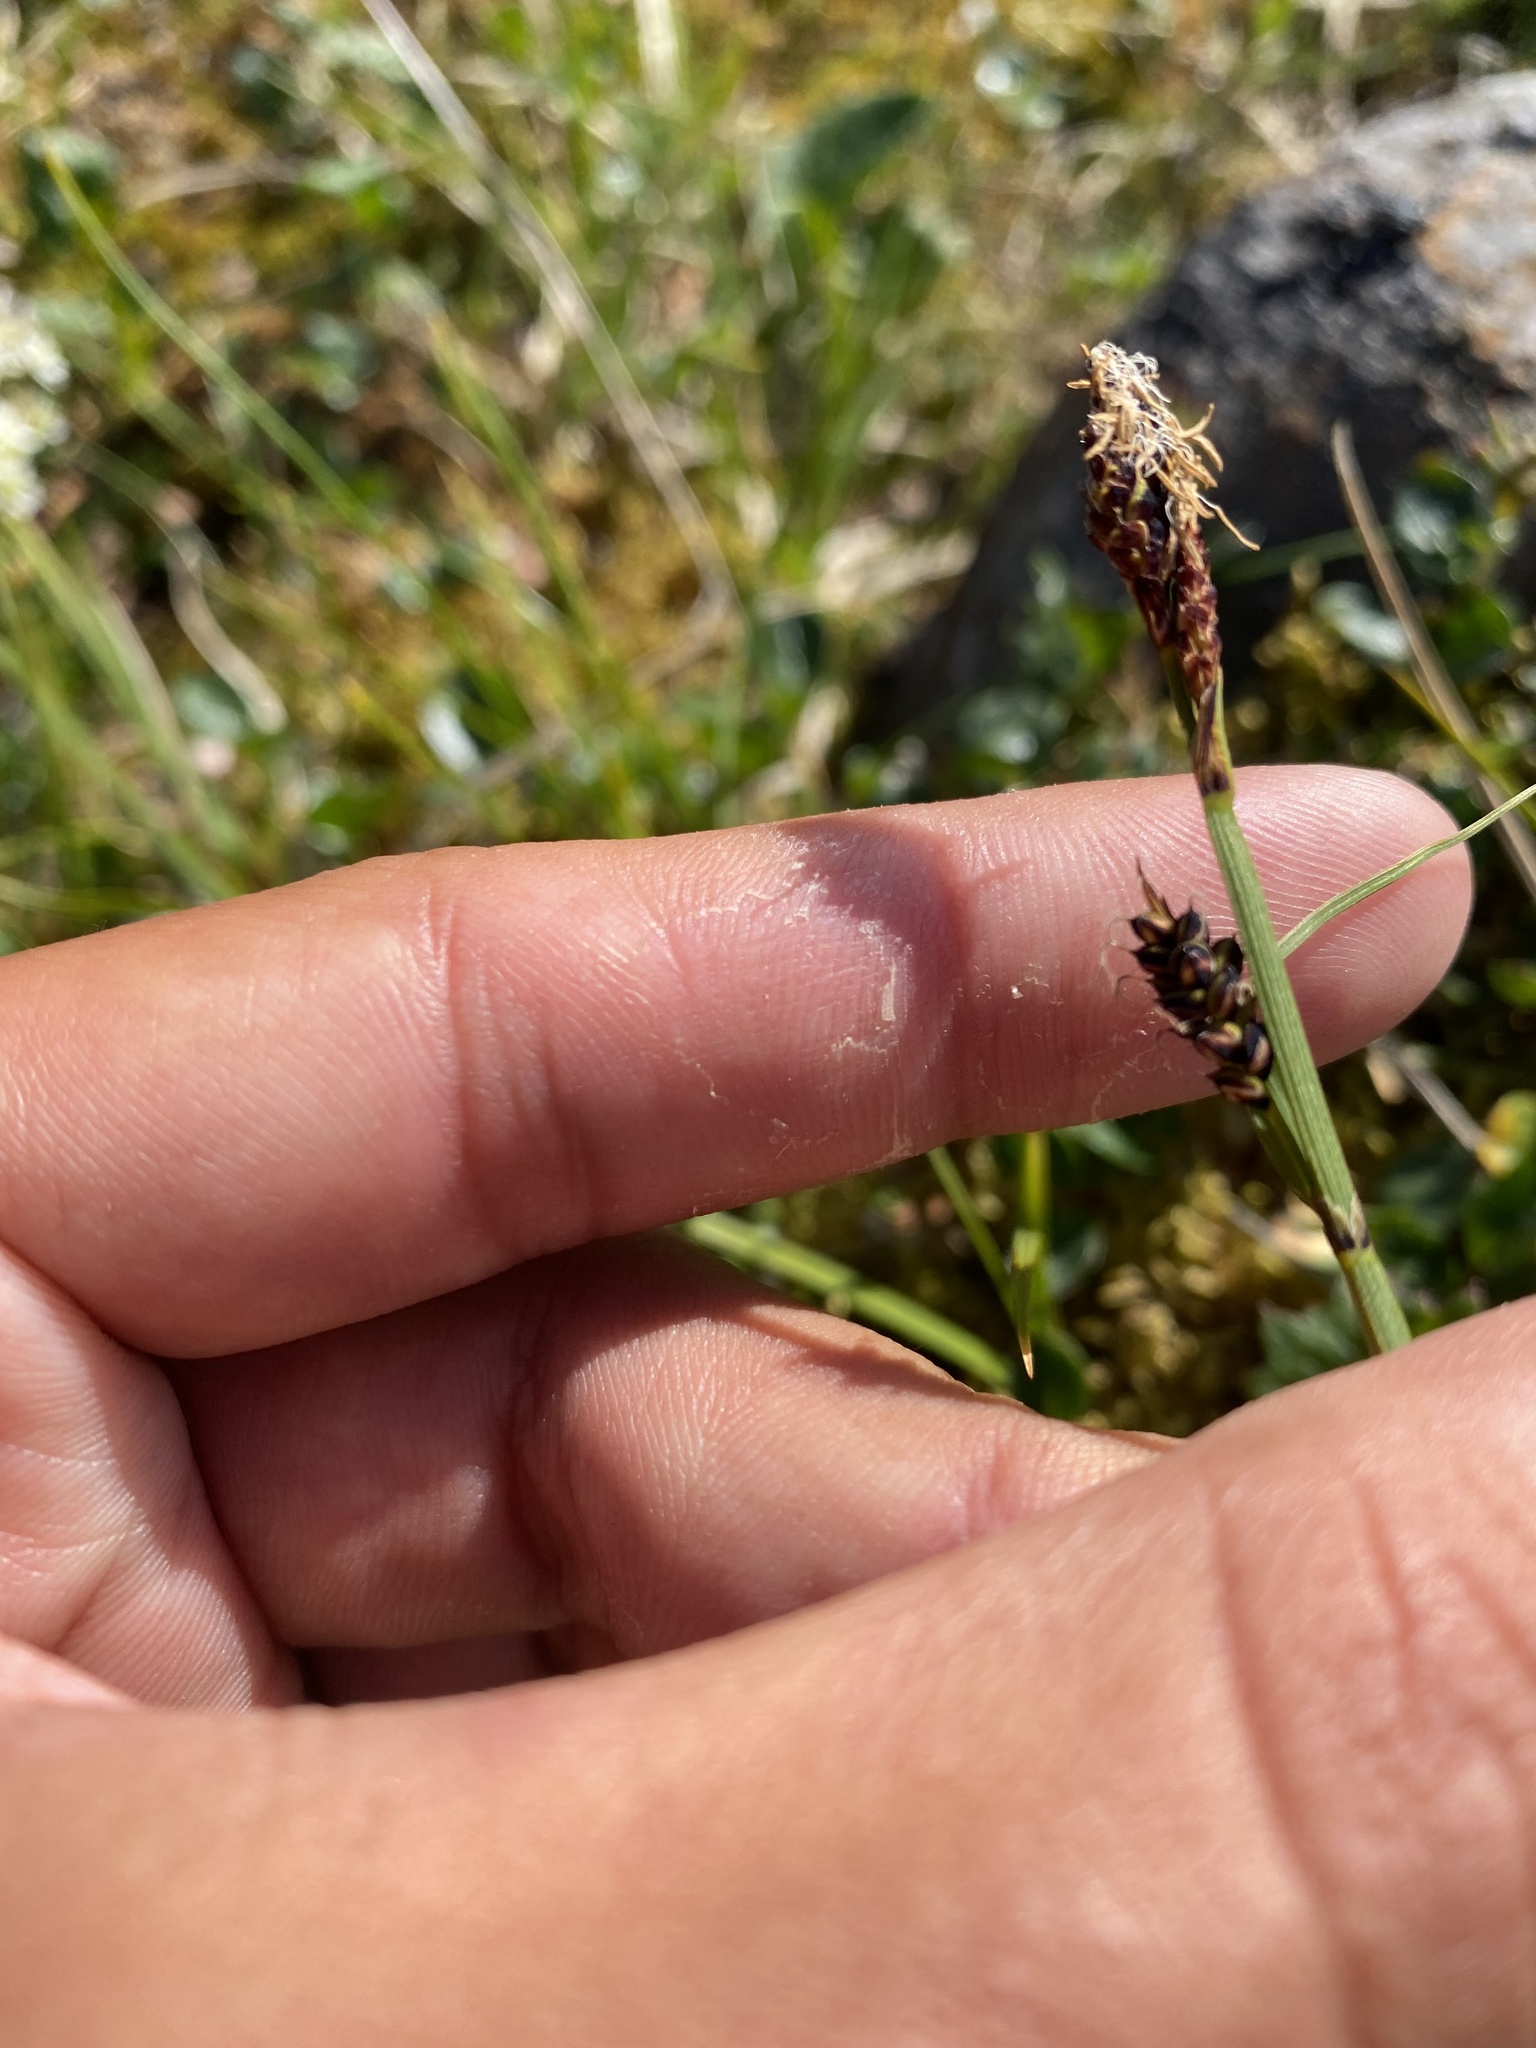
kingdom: Plantae
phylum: Tracheophyta
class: Liliopsida
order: Poales
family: Cyperaceae
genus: Carex
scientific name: Carex bigelowii
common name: Stiff sedge
